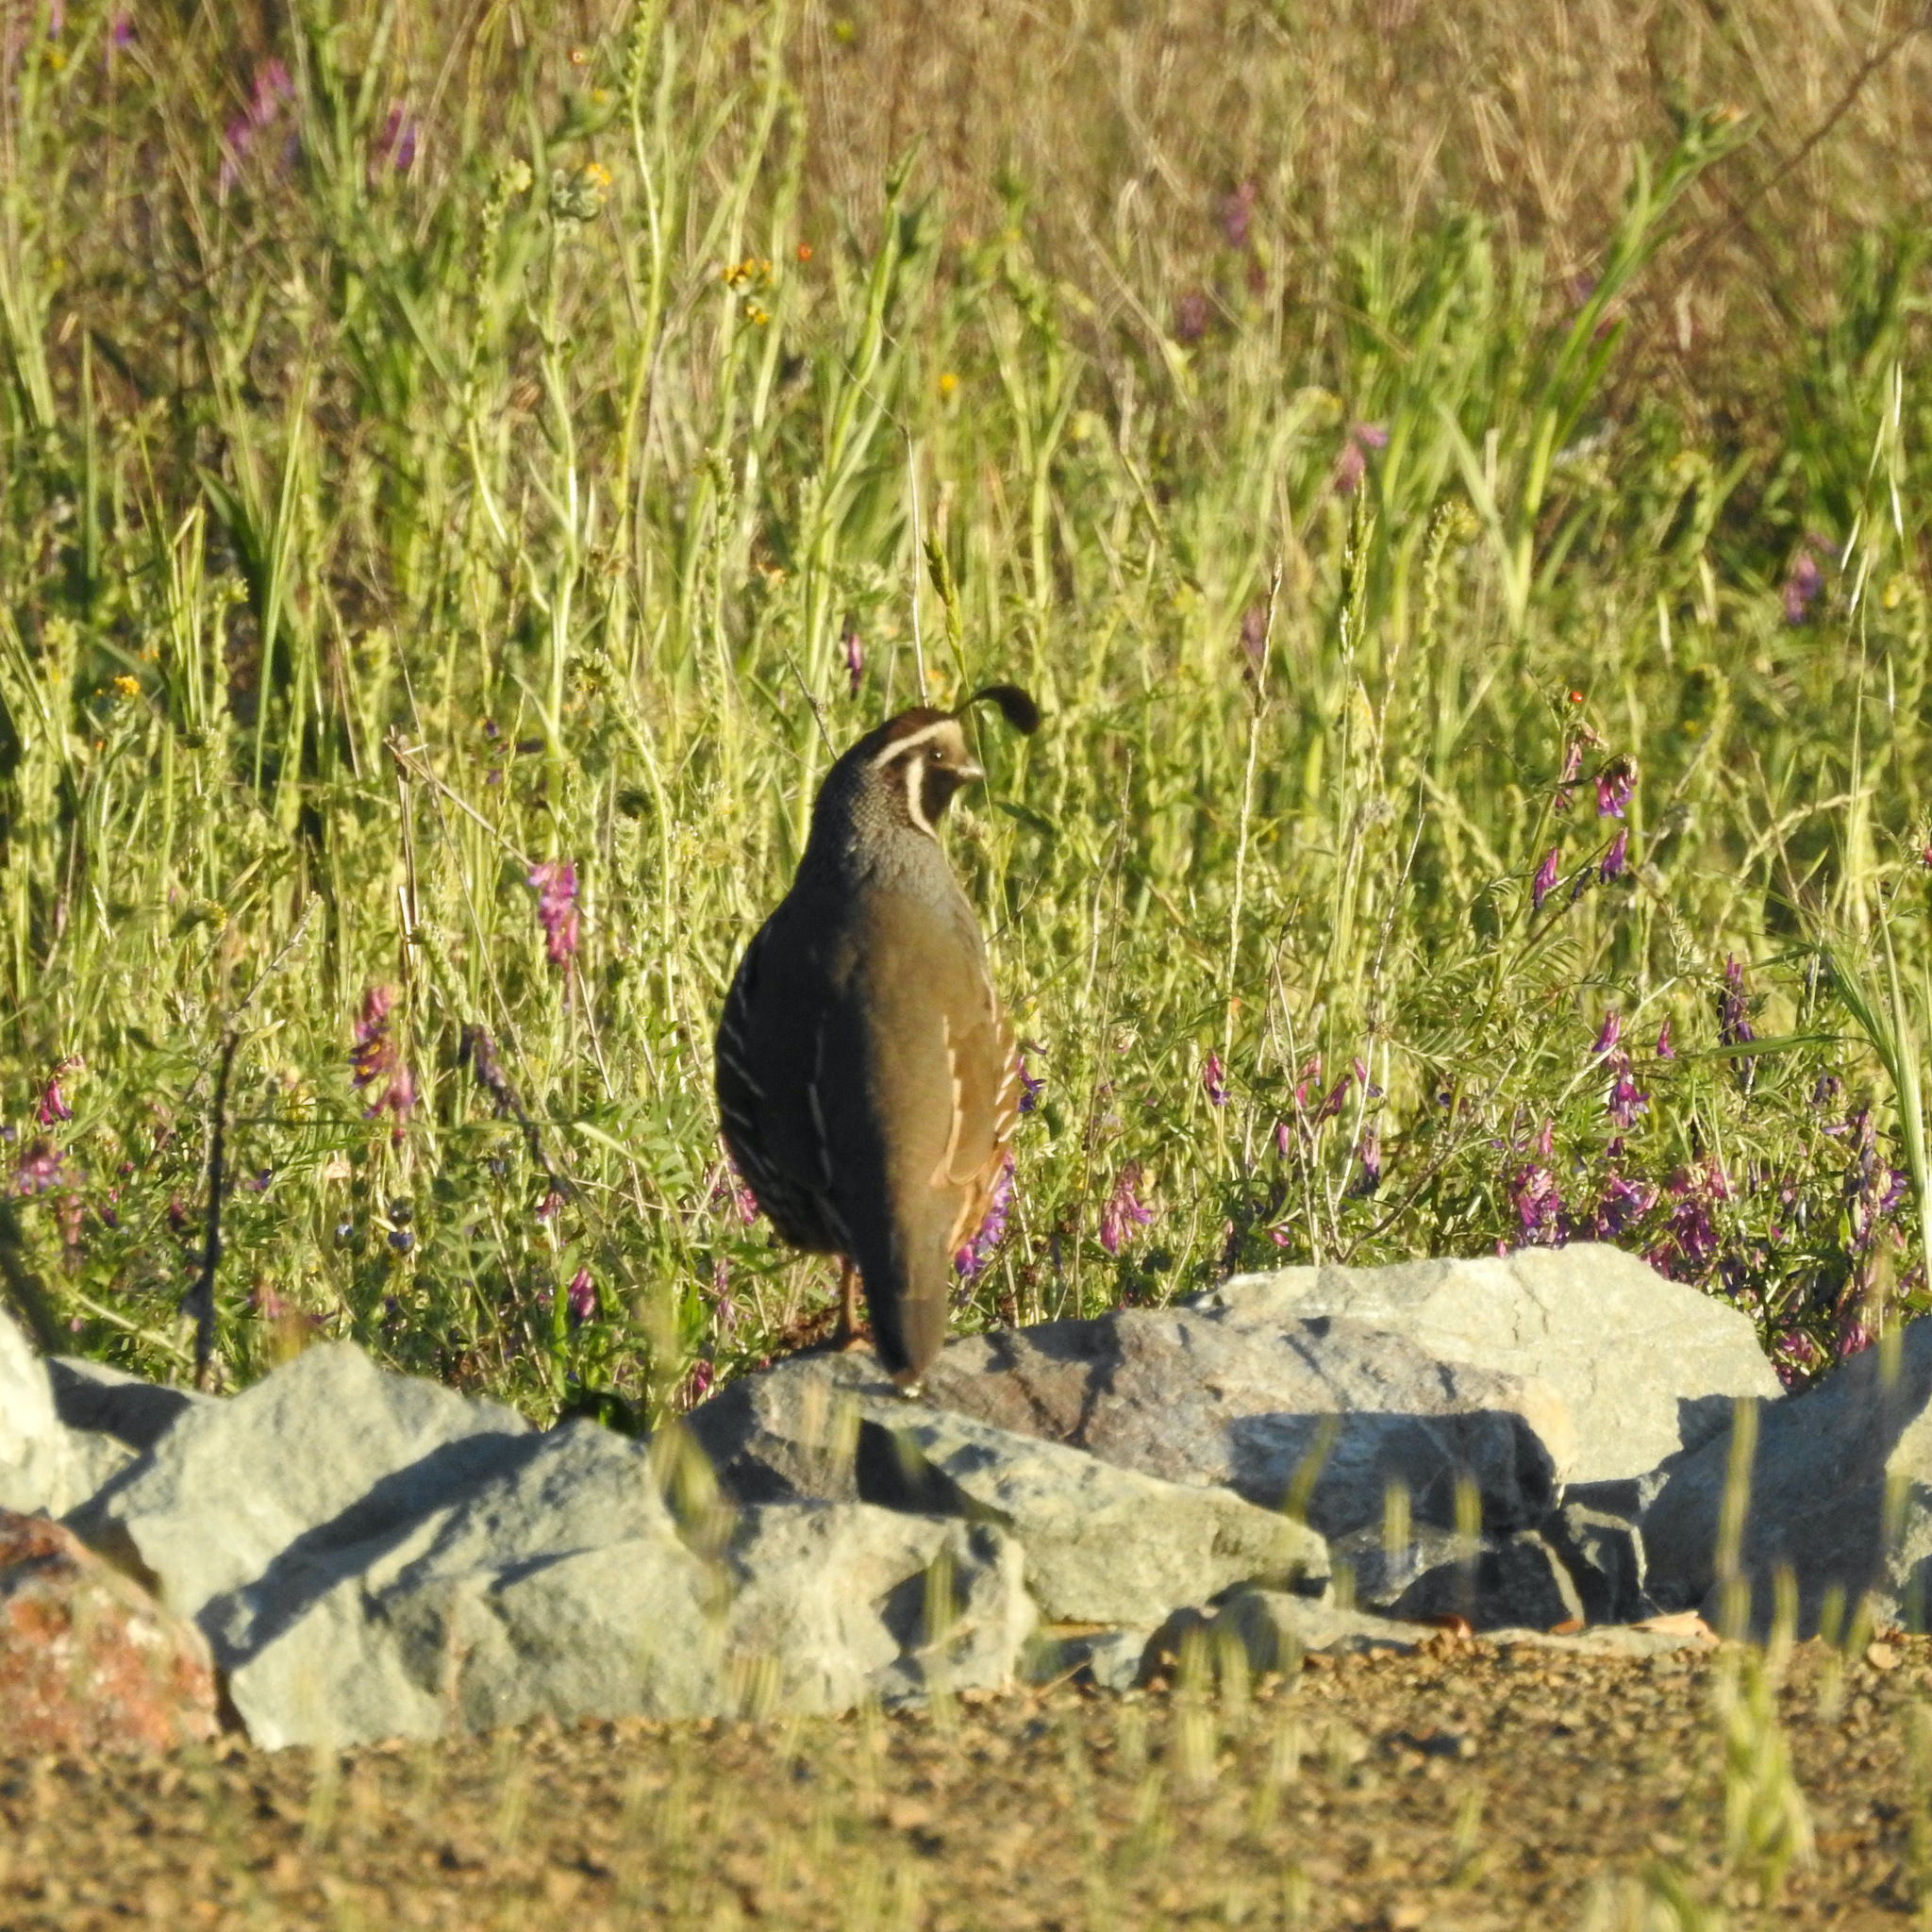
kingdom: Animalia
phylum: Chordata
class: Aves
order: Galliformes
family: Odontophoridae
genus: Callipepla
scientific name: Callipepla californica
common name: California quail
